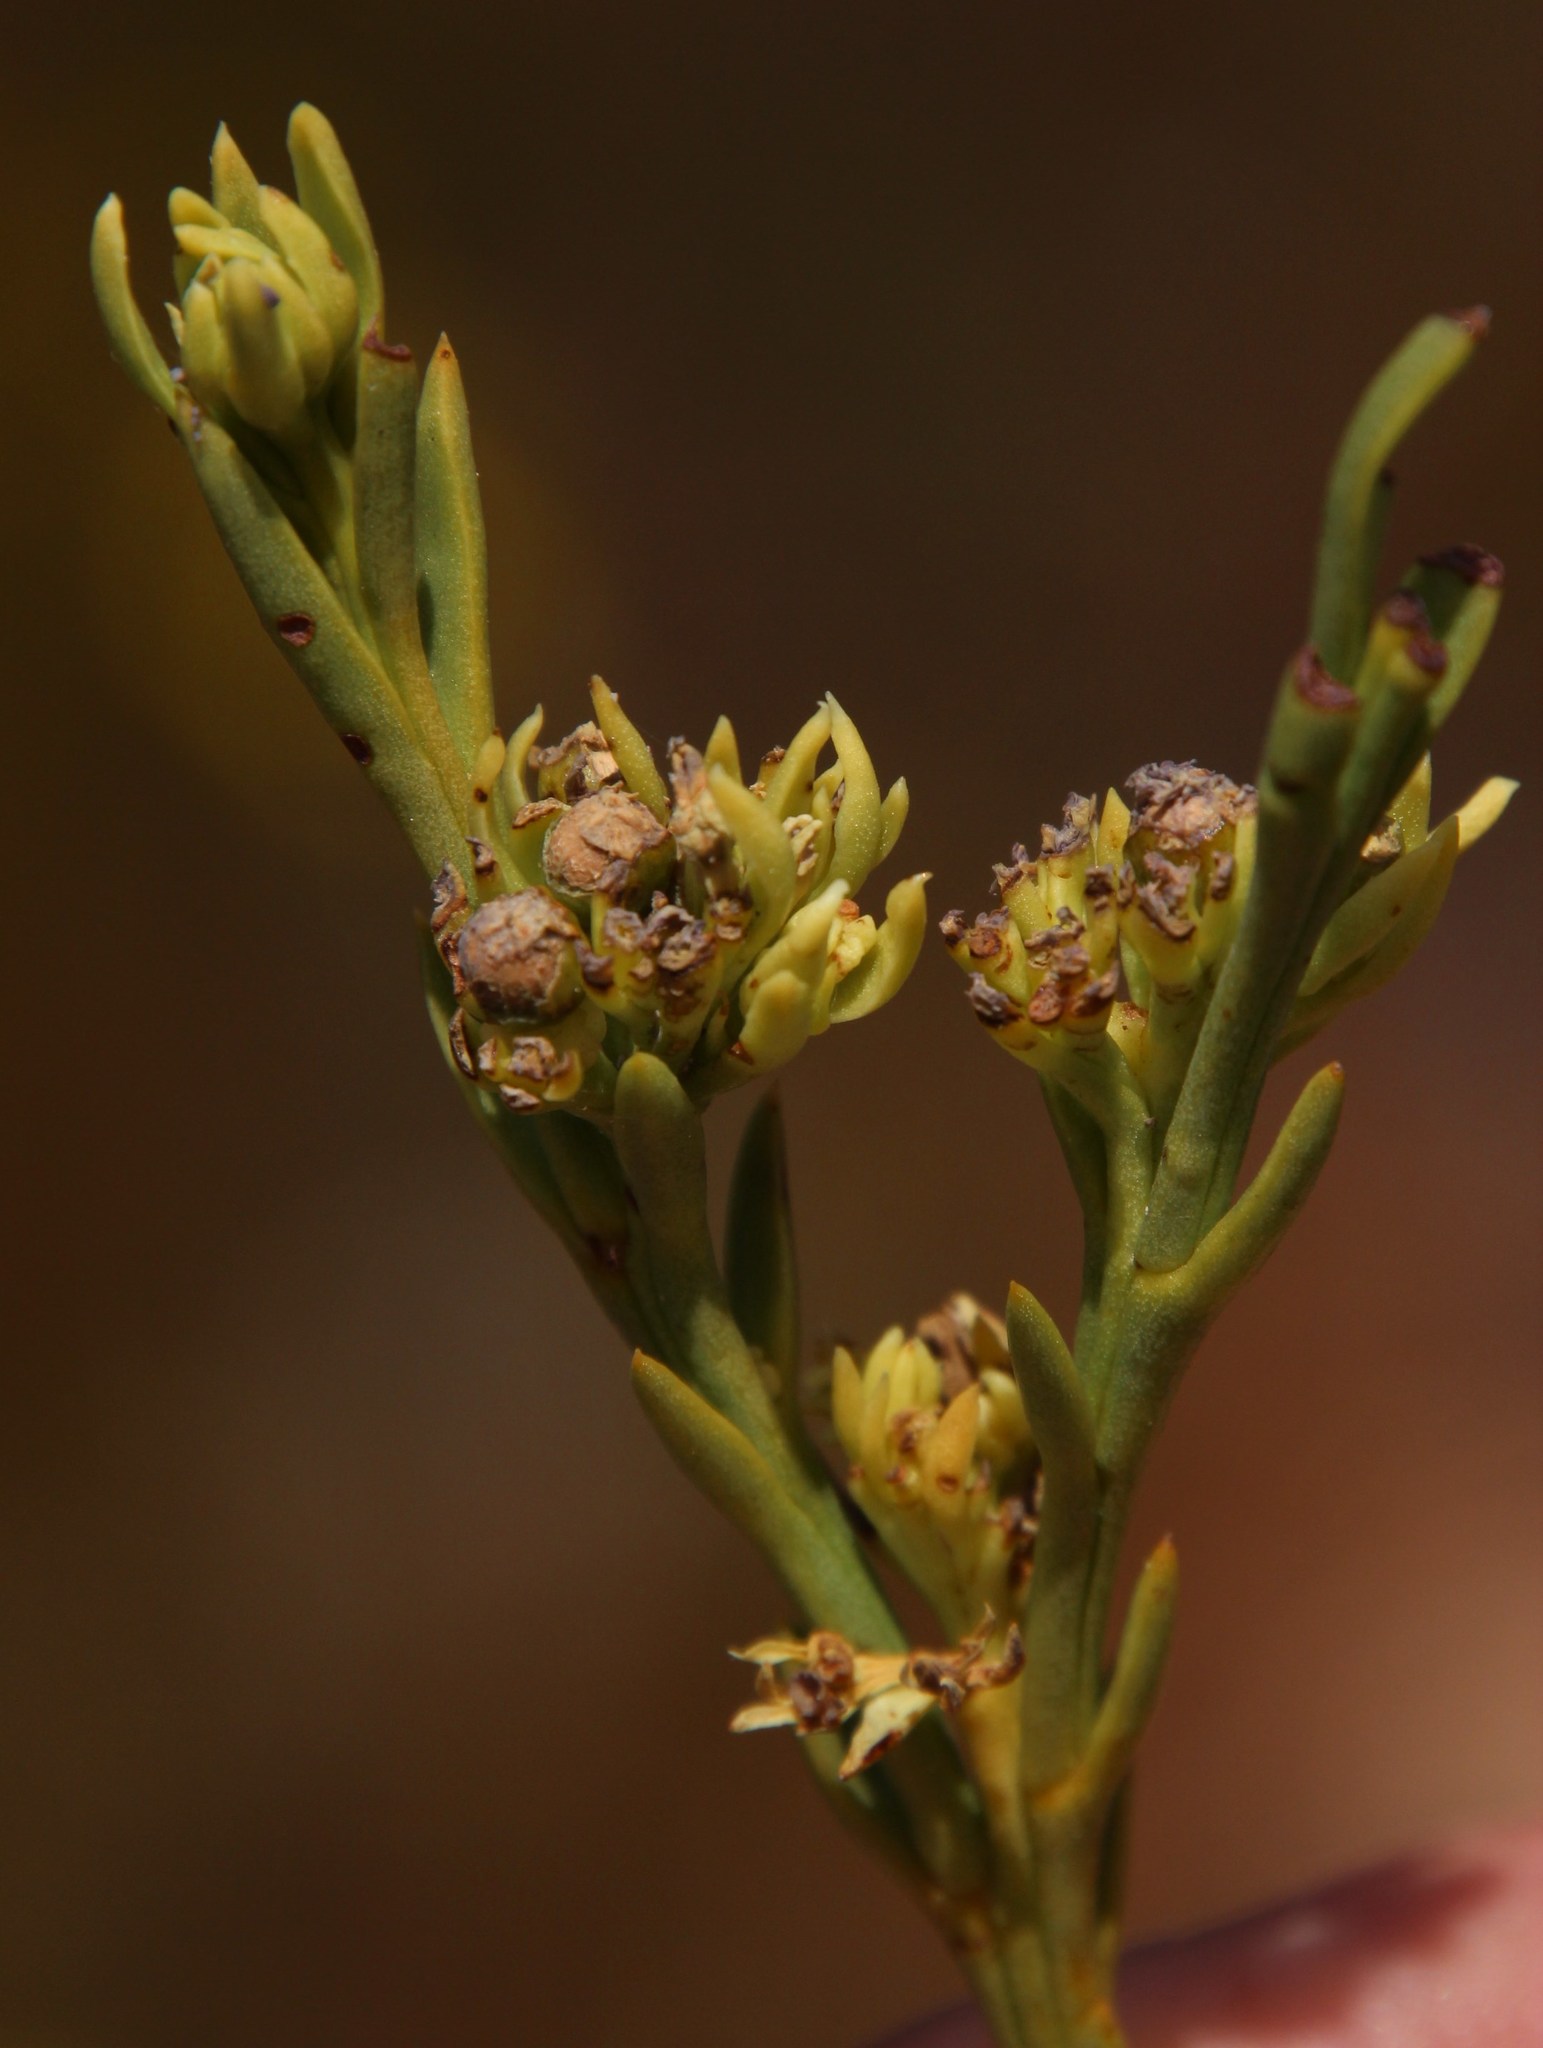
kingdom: Plantae
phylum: Tracheophyta
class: Magnoliopsida
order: Santalales
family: Thesiaceae
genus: Thesium
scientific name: Thesium strictum
